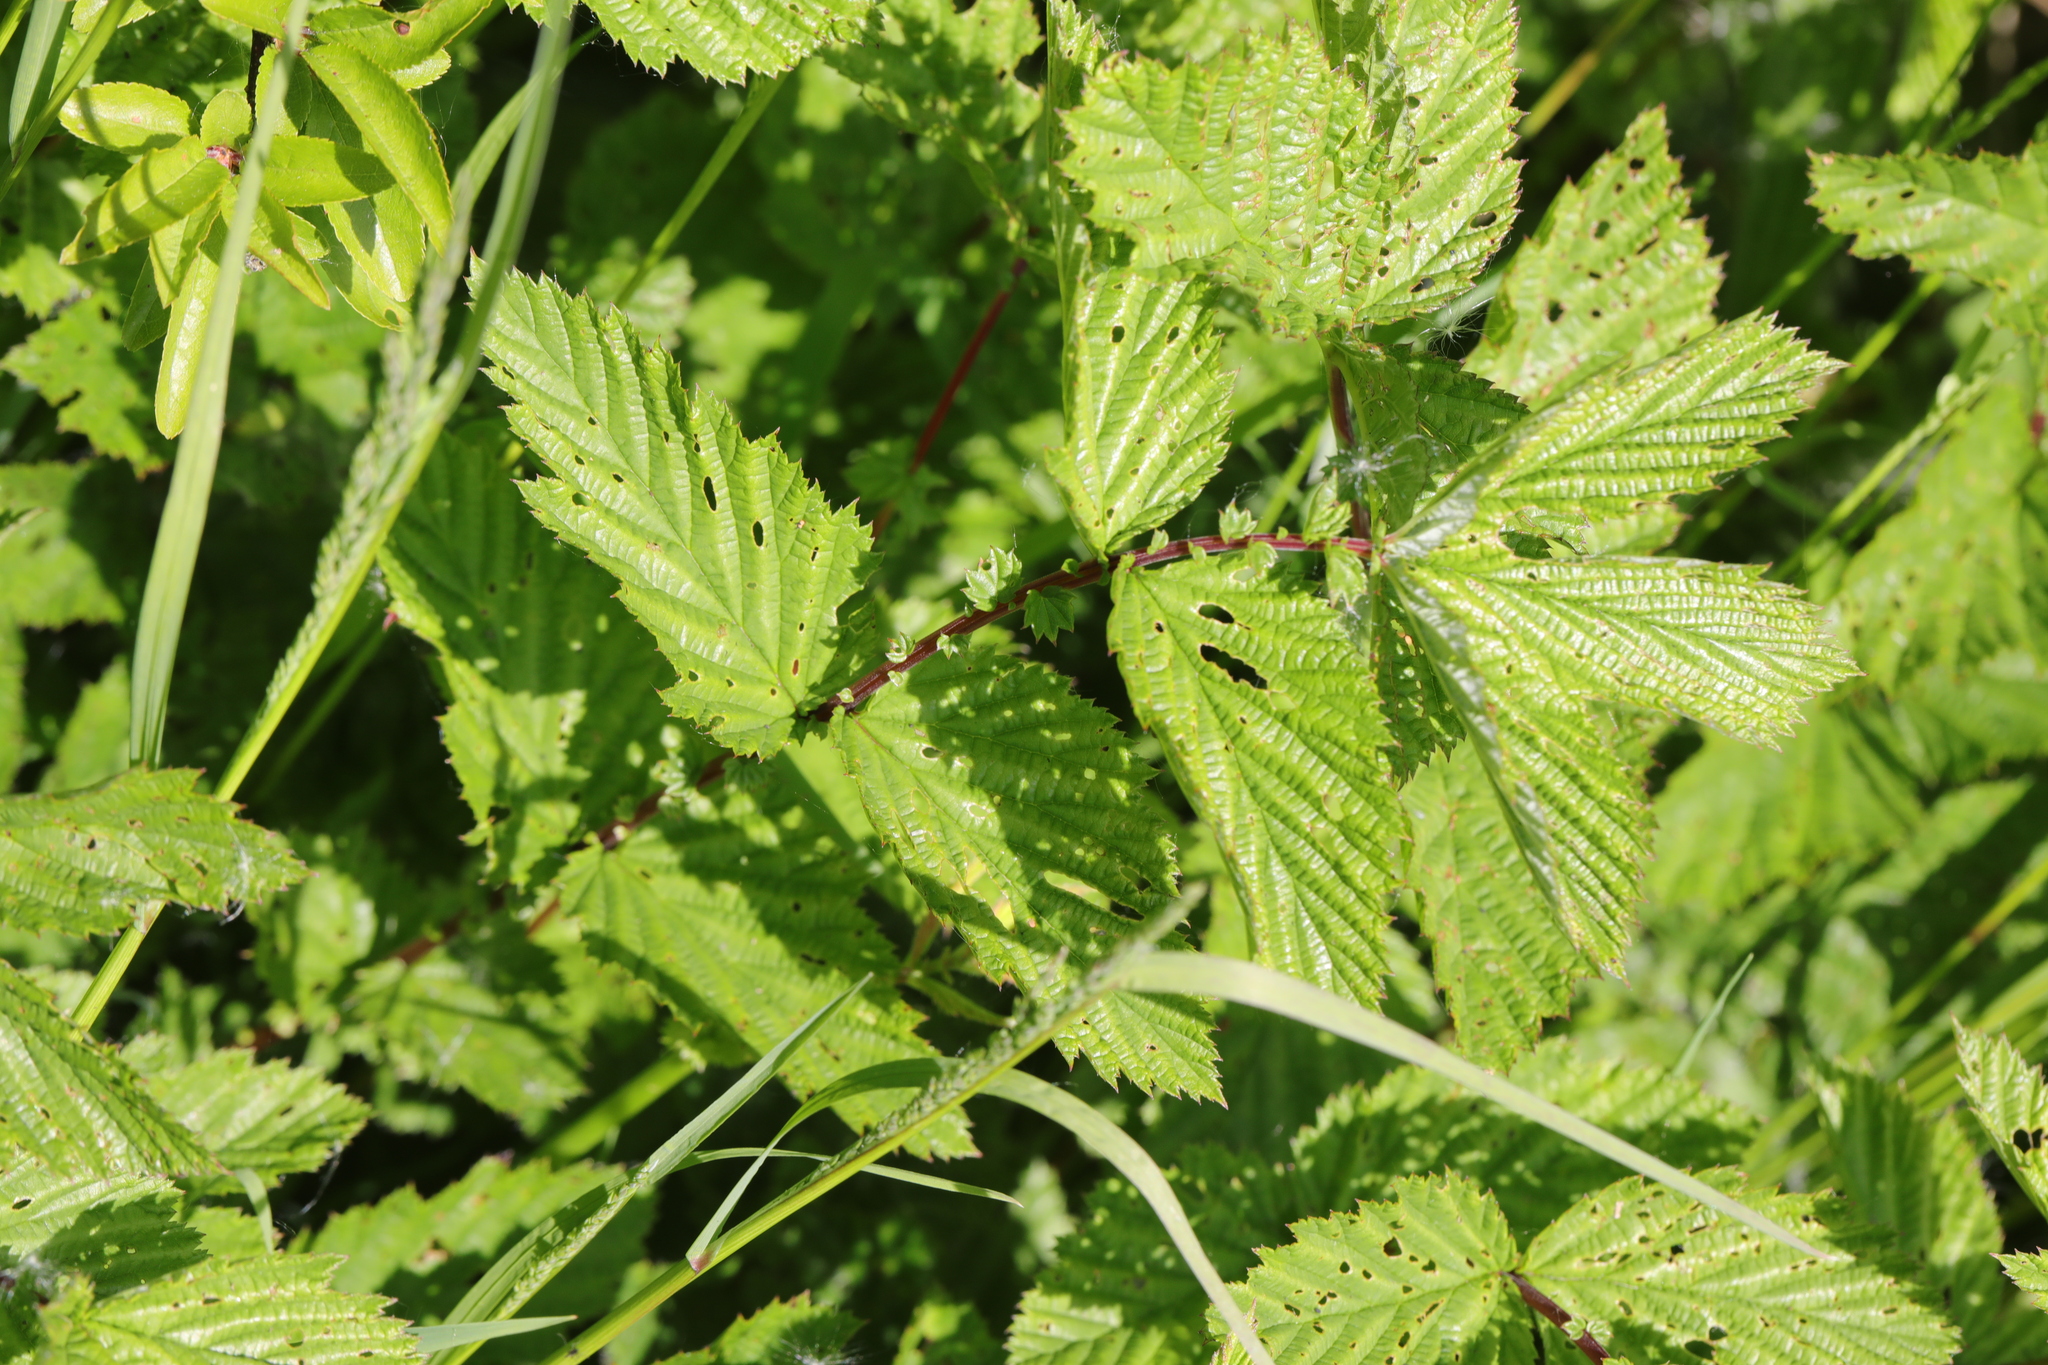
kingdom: Plantae
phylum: Tracheophyta
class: Magnoliopsida
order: Rosales
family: Rosaceae
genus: Filipendula
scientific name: Filipendula ulmaria
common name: Meadowsweet
